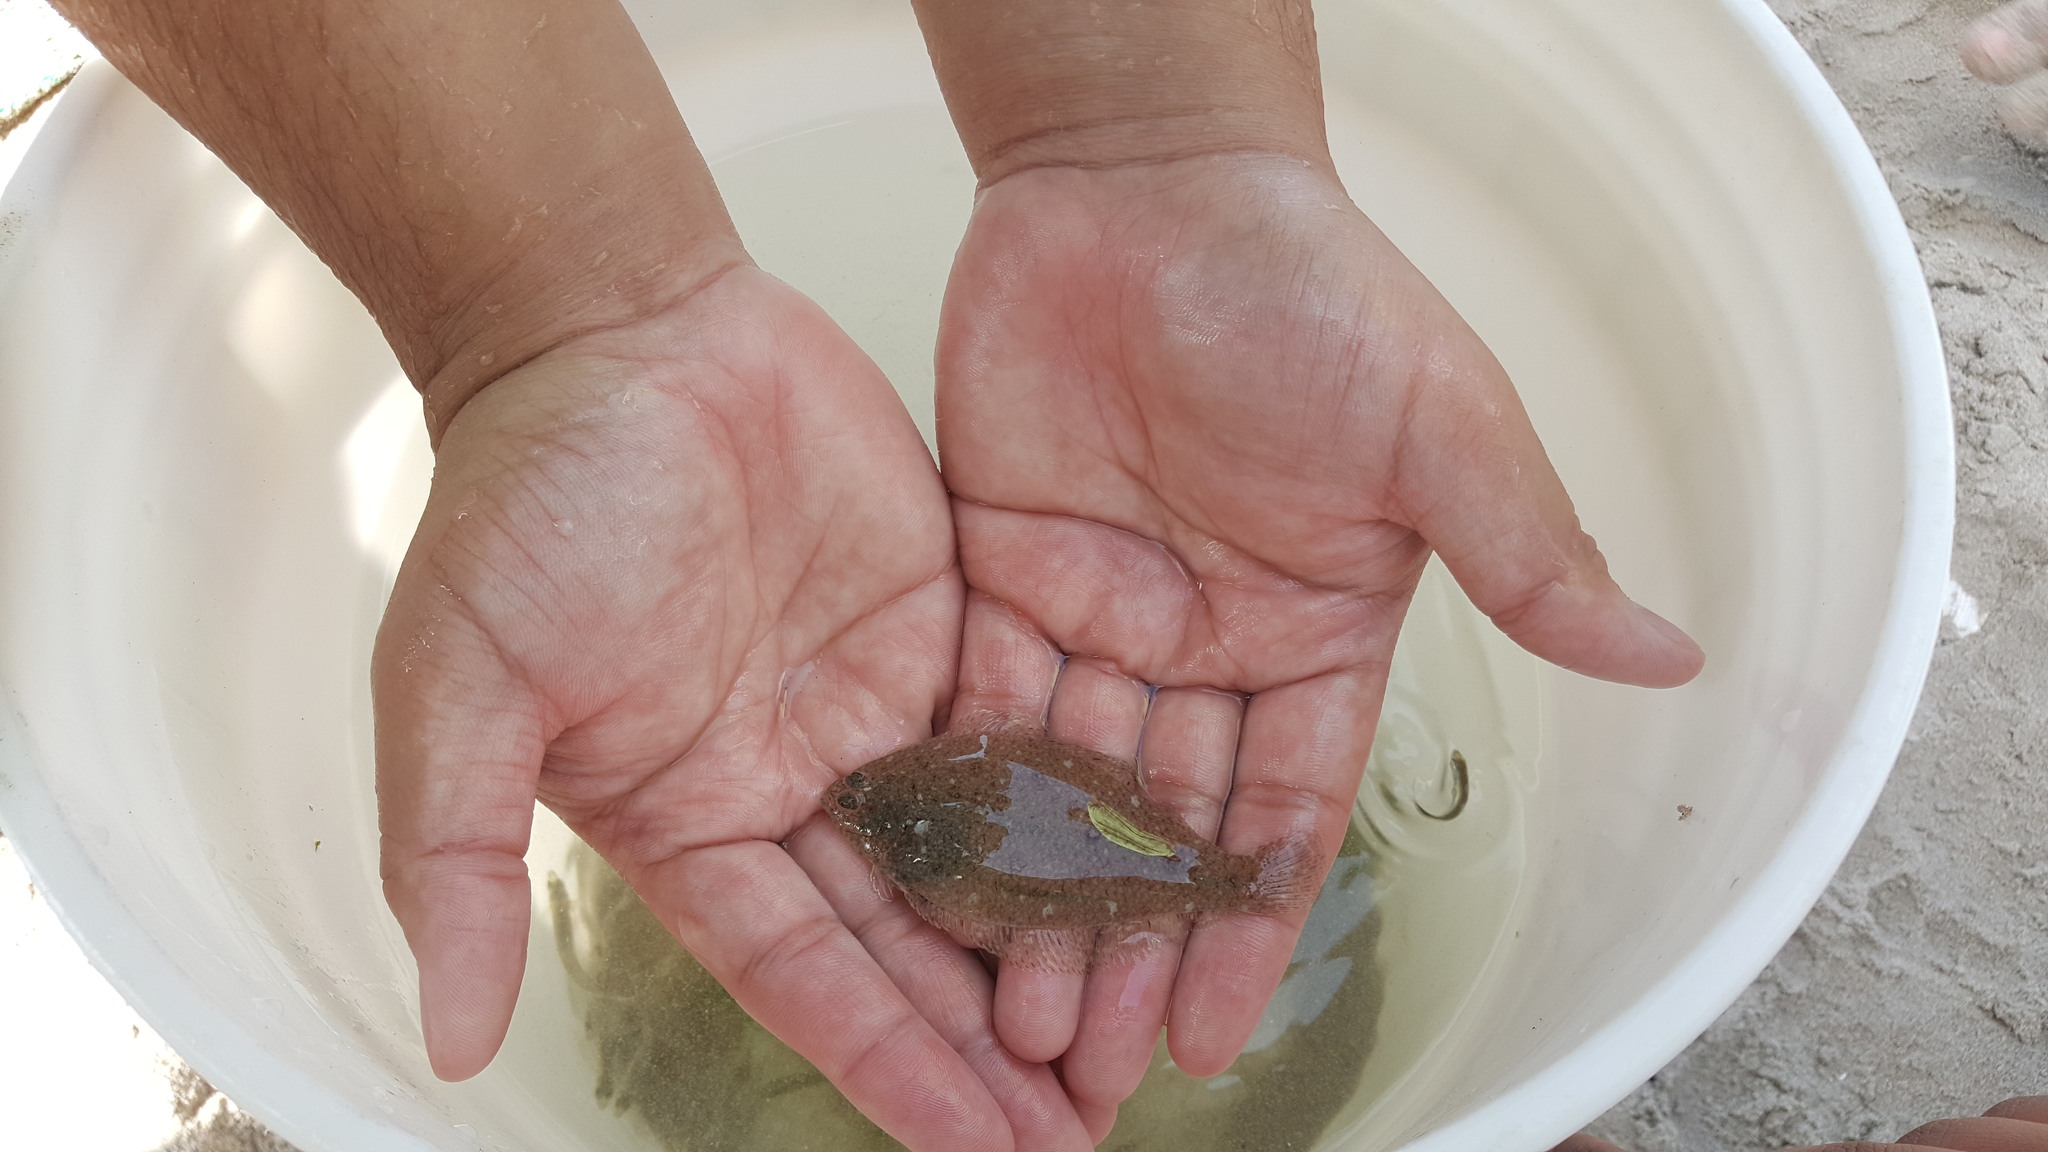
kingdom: Animalia
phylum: Chordata
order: Pleuronectiformes
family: Paralichthyidae
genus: Paralichthys
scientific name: Paralichthys dentatus
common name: Summer flounder
